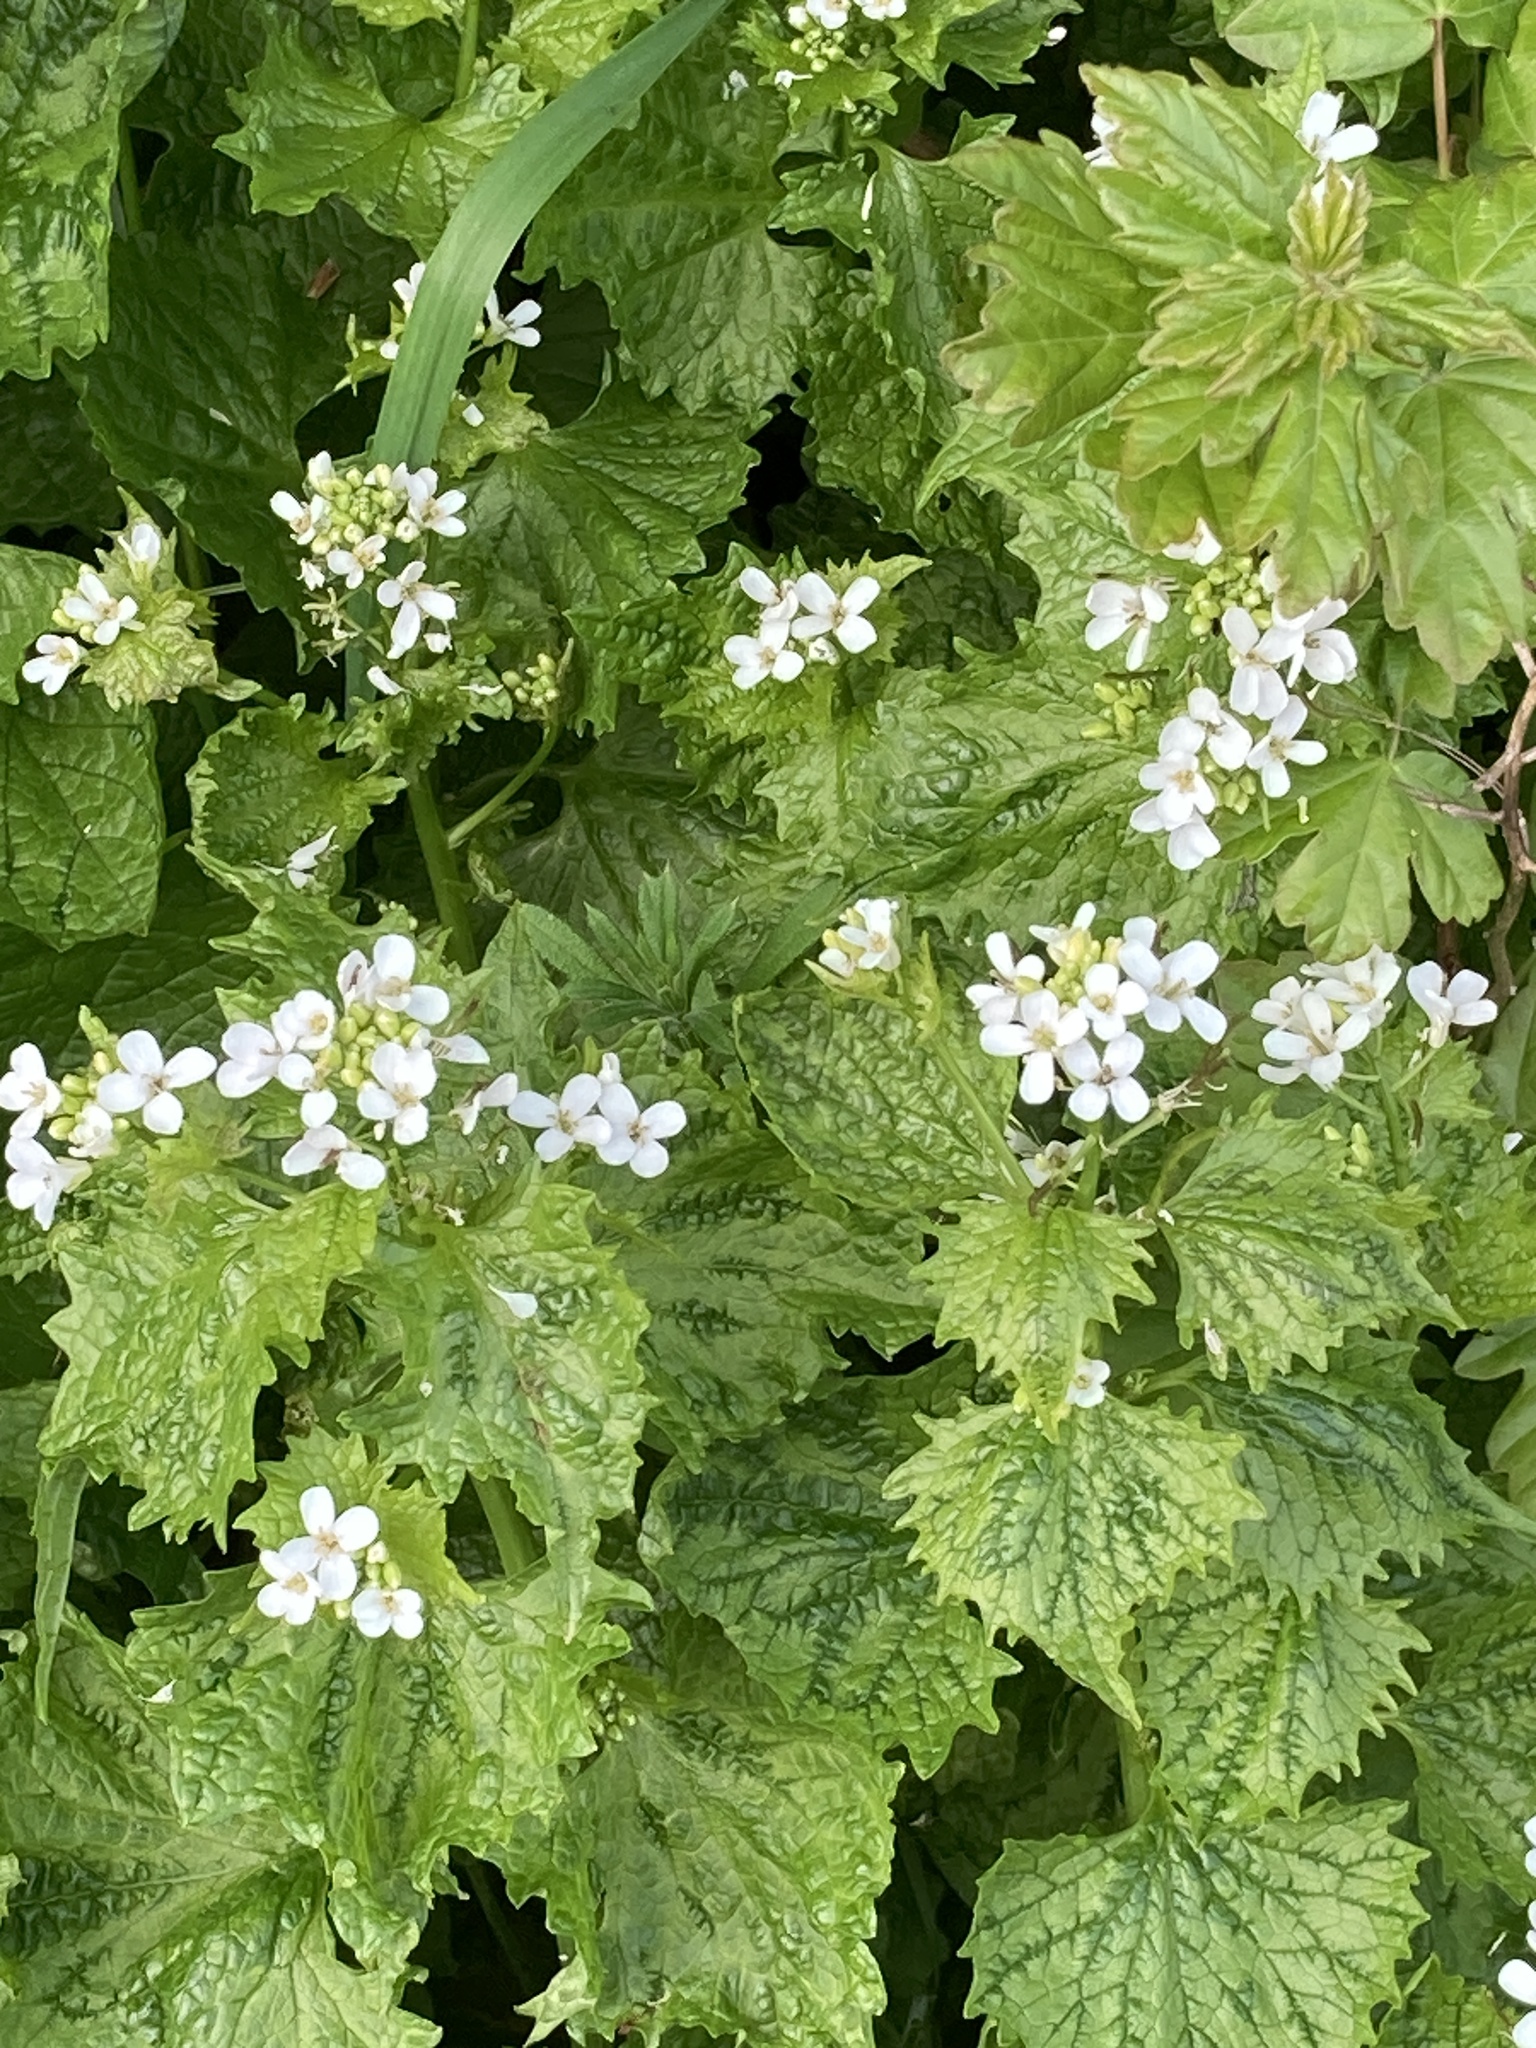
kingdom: Plantae
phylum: Tracheophyta
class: Magnoliopsida
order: Brassicales
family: Brassicaceae
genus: Alliaria
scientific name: Alliaria petiolata
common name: Garlic mustard
